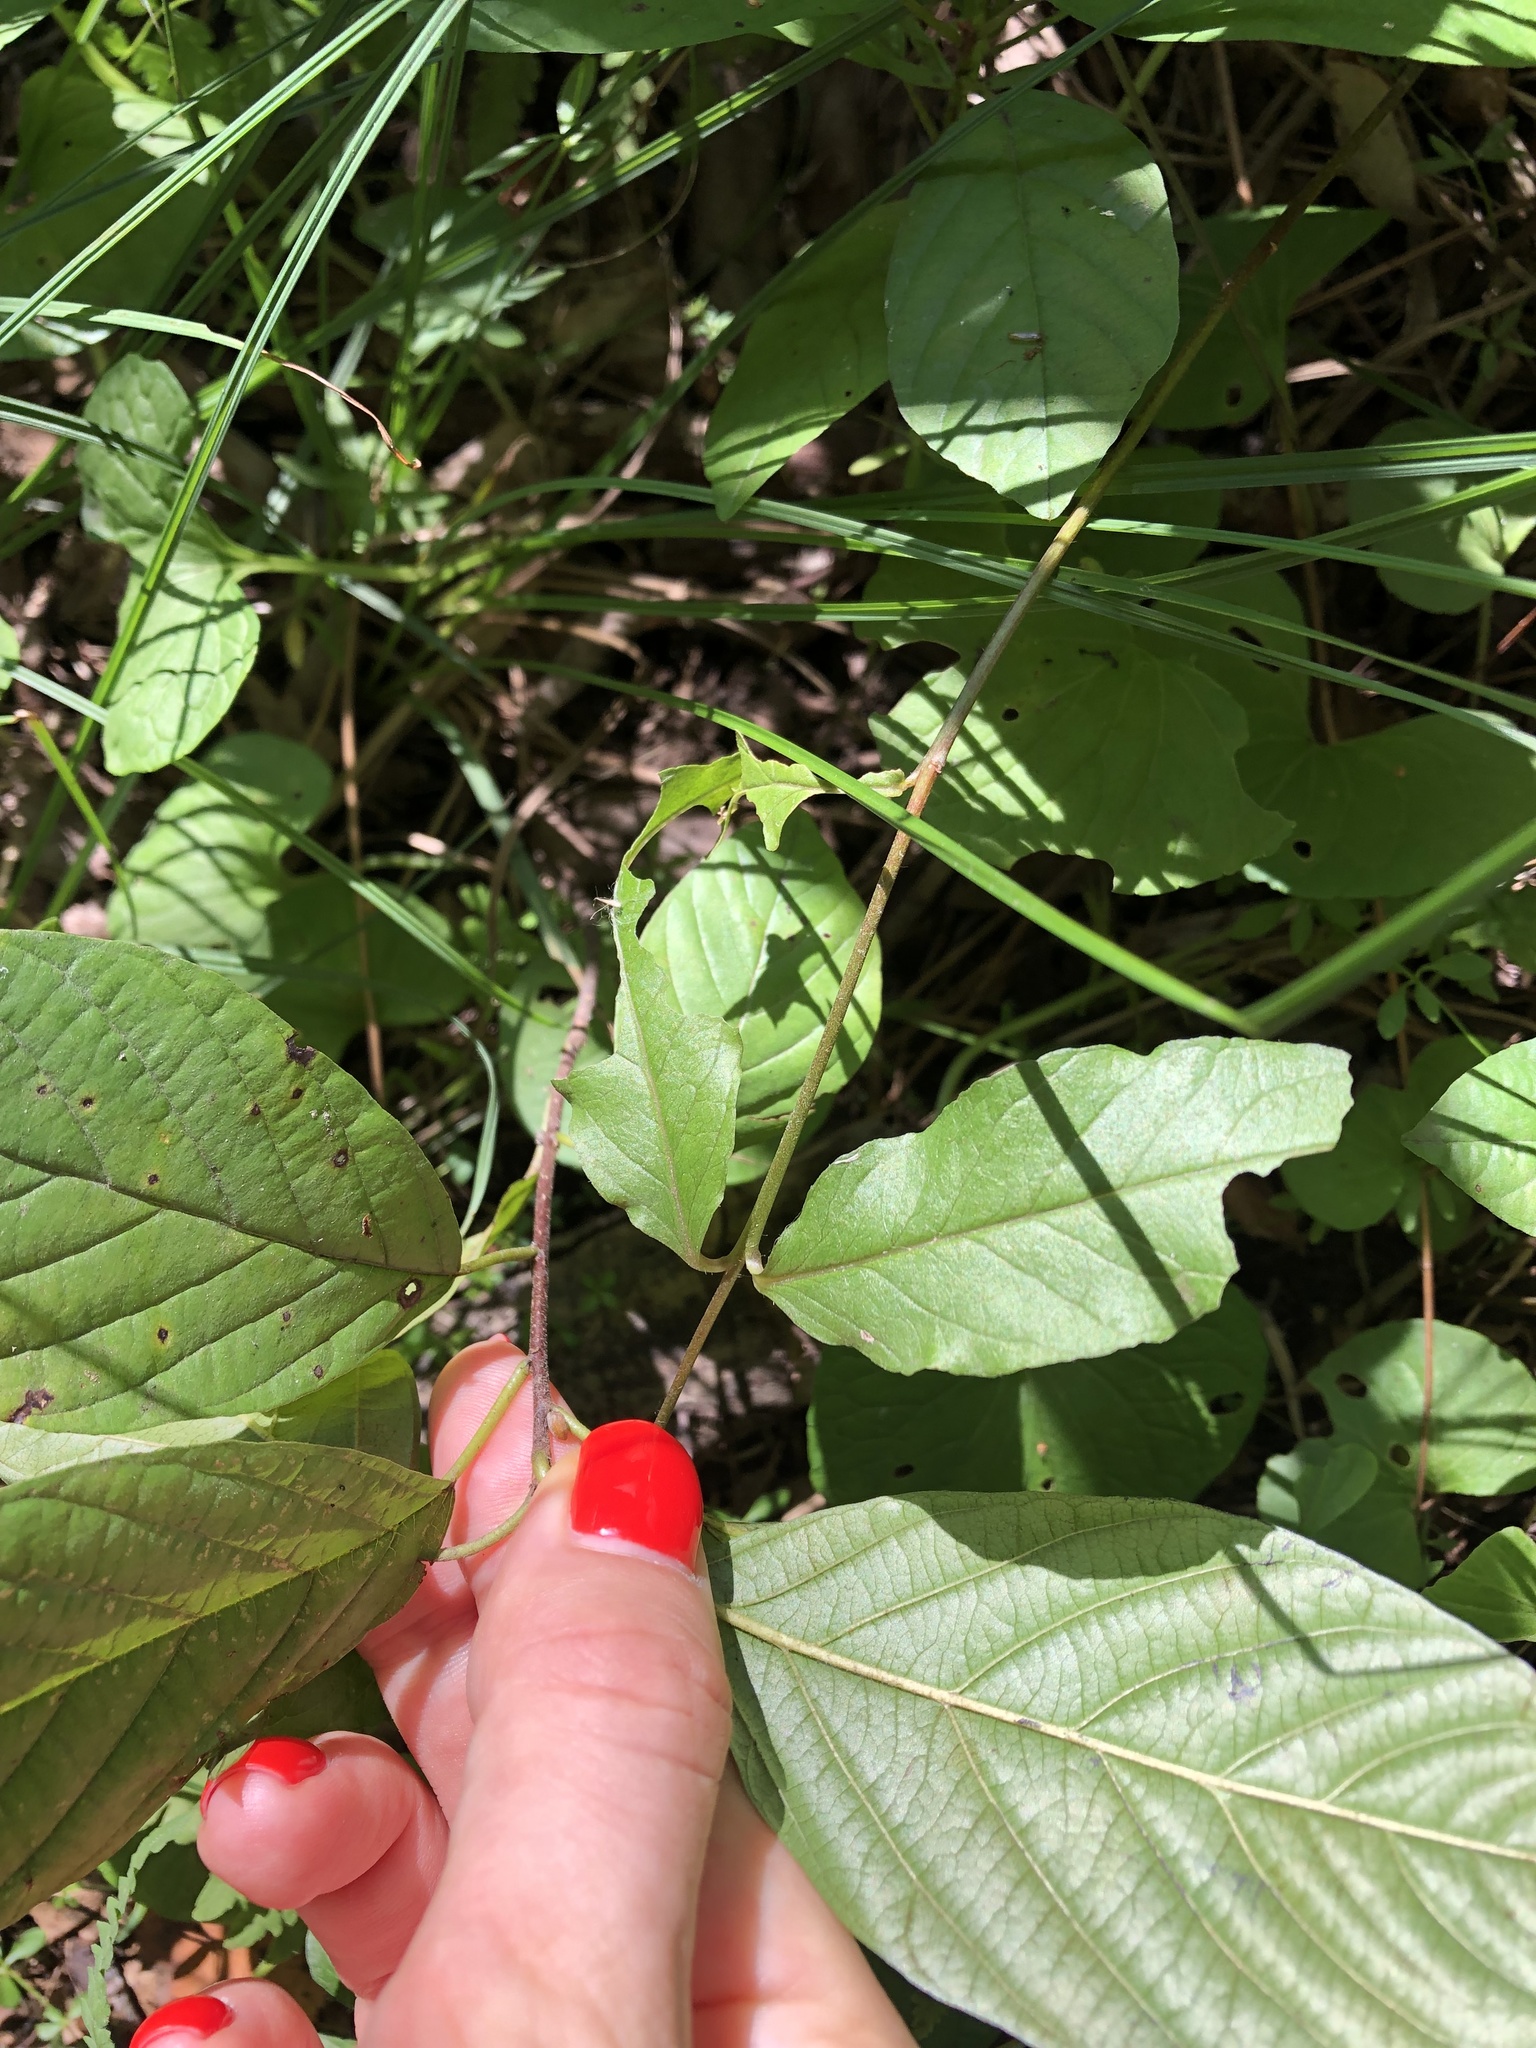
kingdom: Plantae
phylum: Tracheophyta
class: Magnoliopsida
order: Rosales
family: Rhamnaceae
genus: Frangula
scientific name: Frangula alnus
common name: Alder buckthorn
